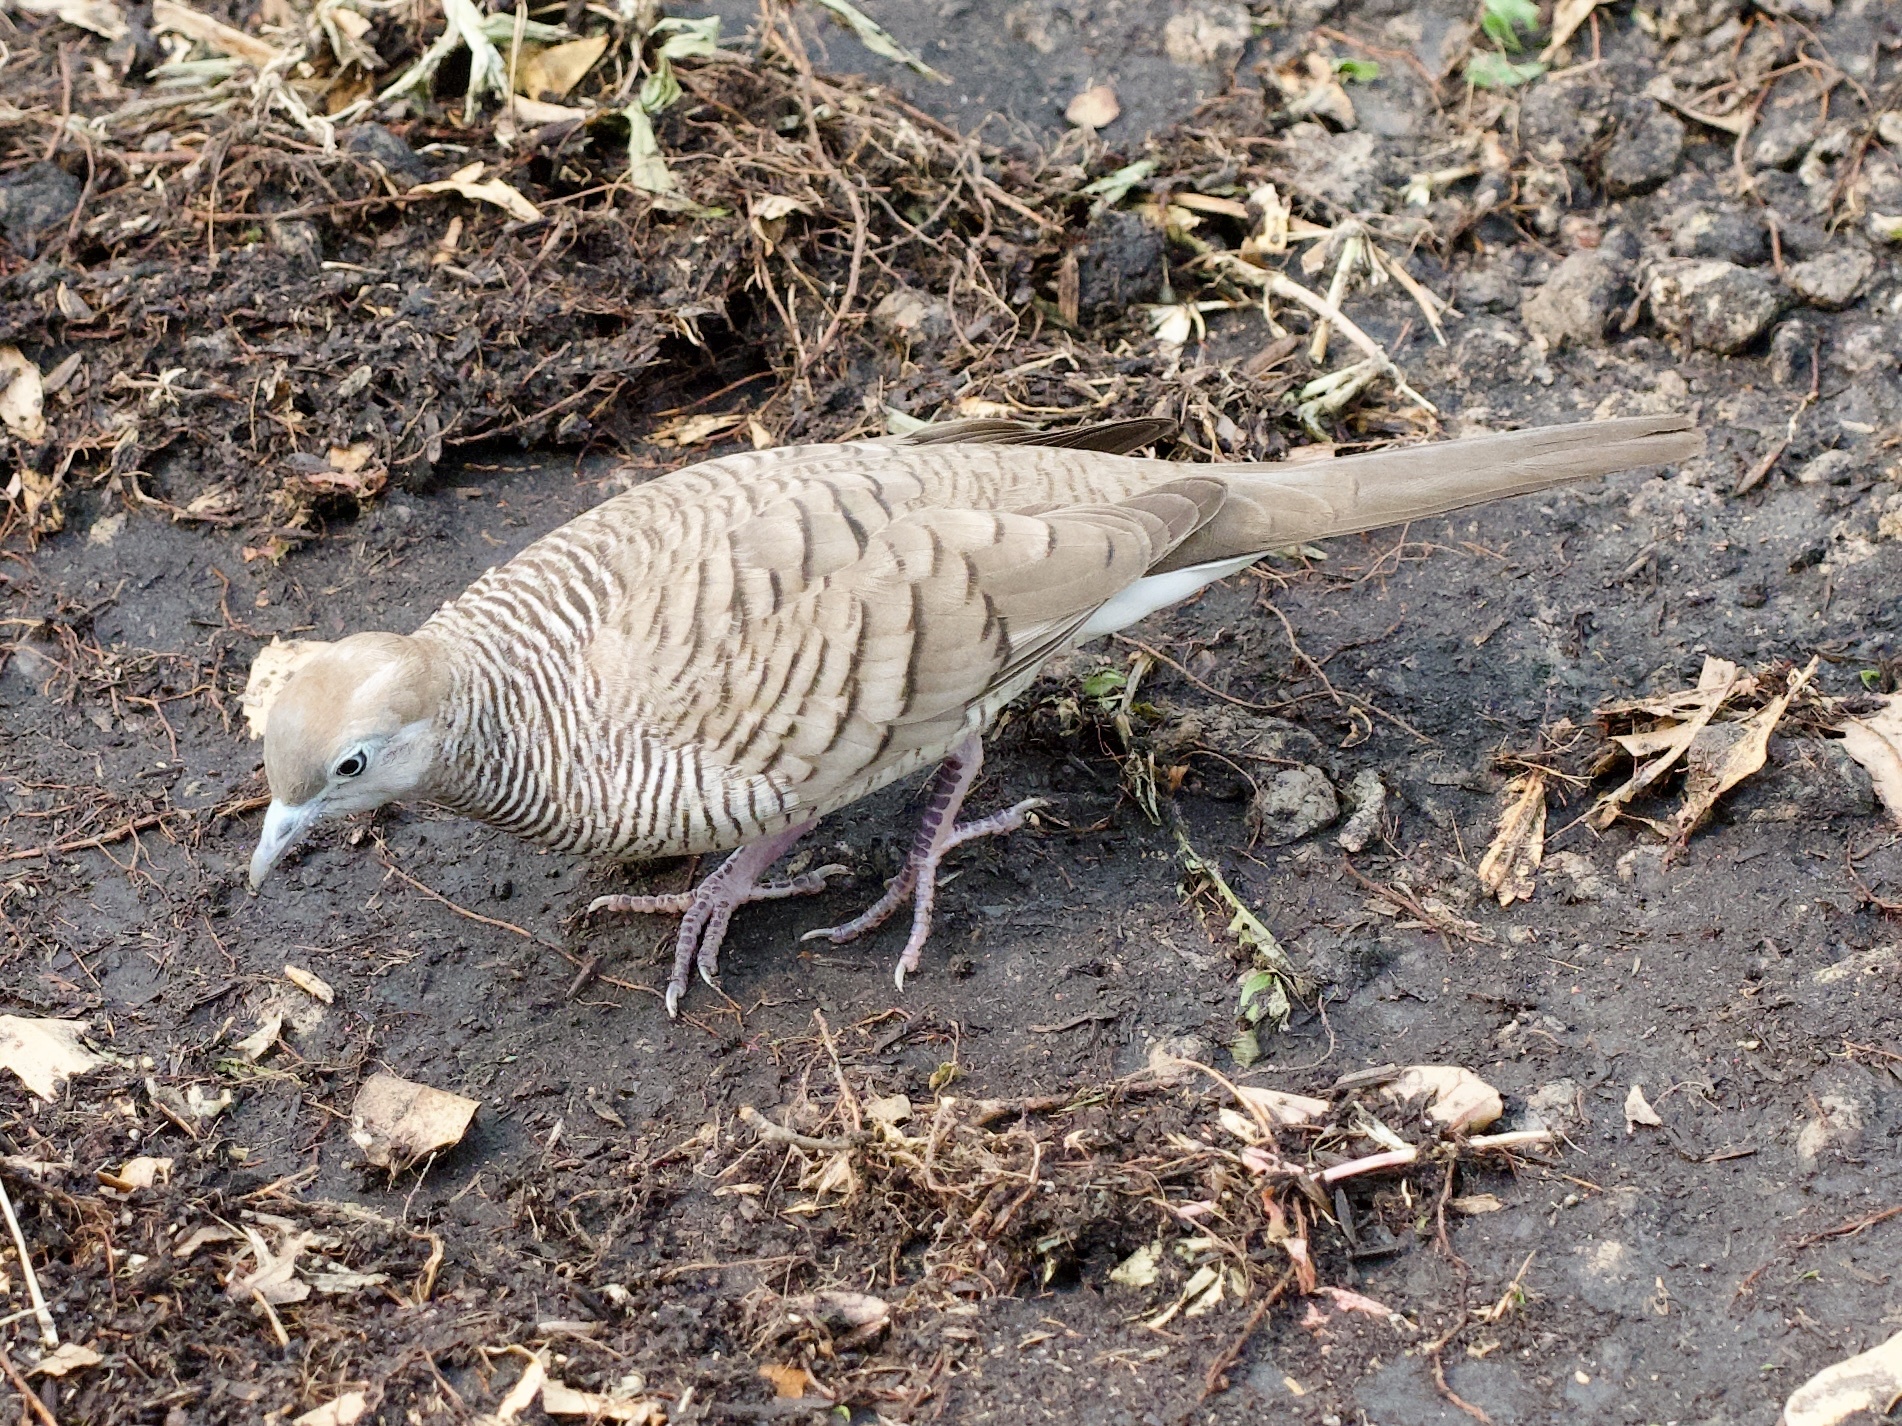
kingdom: Animalia
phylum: Chordata
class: Aves
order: Columbiformes
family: Columbidae
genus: Geopelia
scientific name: Geopelia striata
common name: Zebra dove
